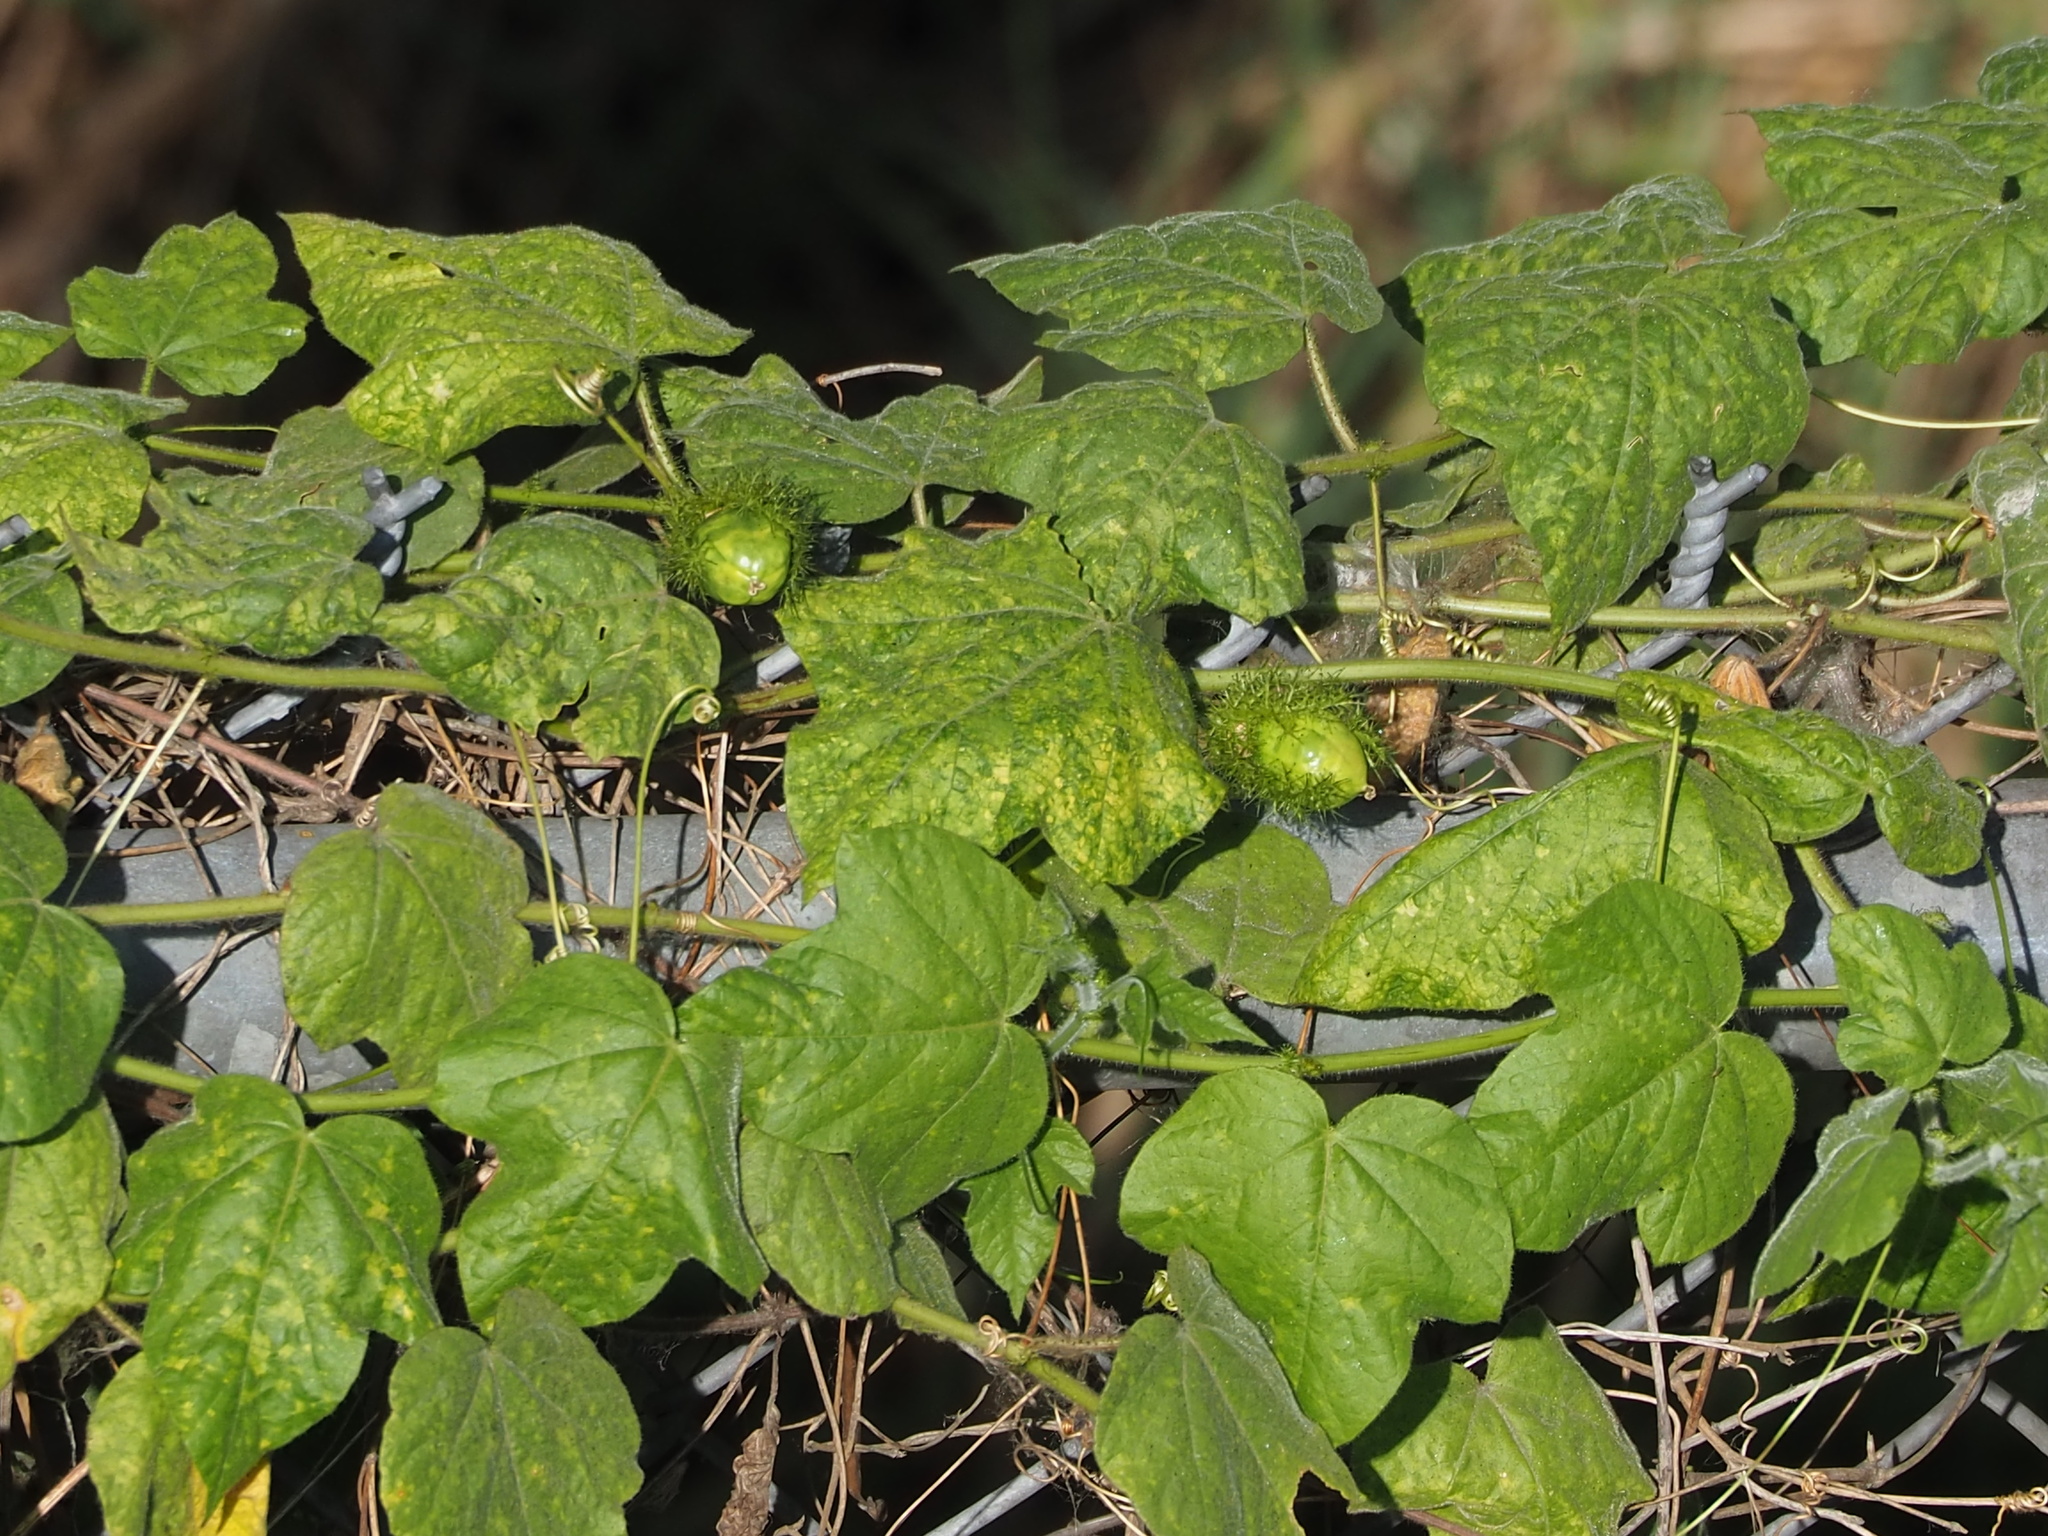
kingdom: Plantae
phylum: Tracheophyta
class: Magnoliopsida
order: Malpighiales
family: Passifloraceae
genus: Passiflora
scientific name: Passiflora vesicaria
